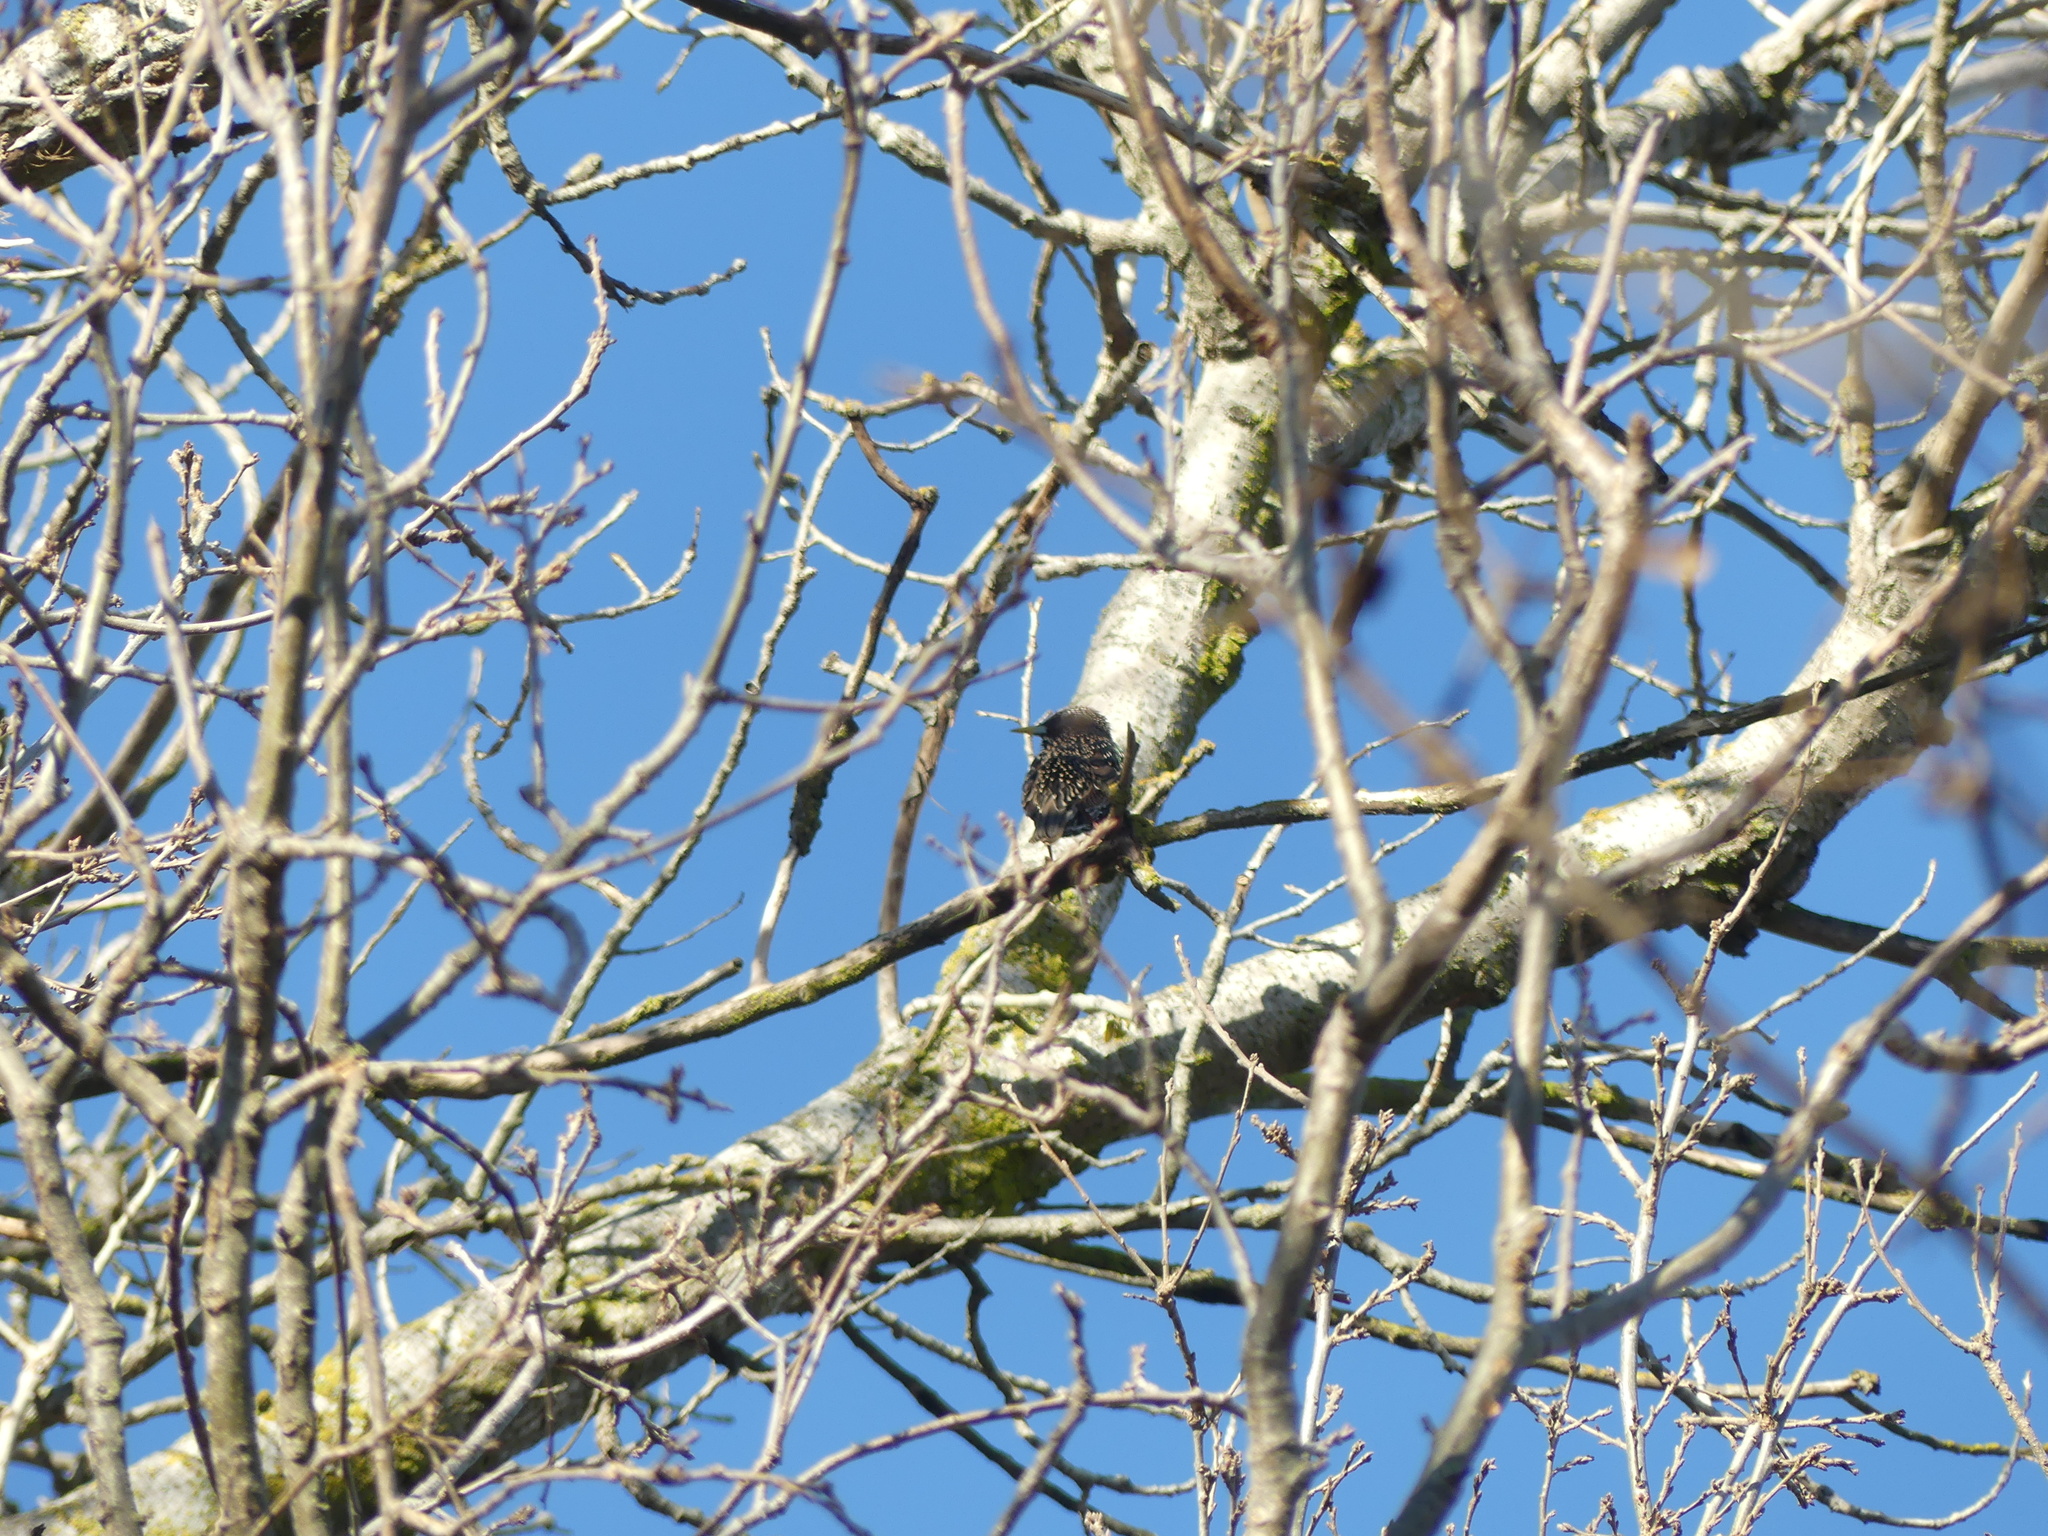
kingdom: Animalia
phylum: Chordata
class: Aves
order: Passeriformes
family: Sturnidae
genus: Sturnus
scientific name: Sturnus vulgaris
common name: Common starling
